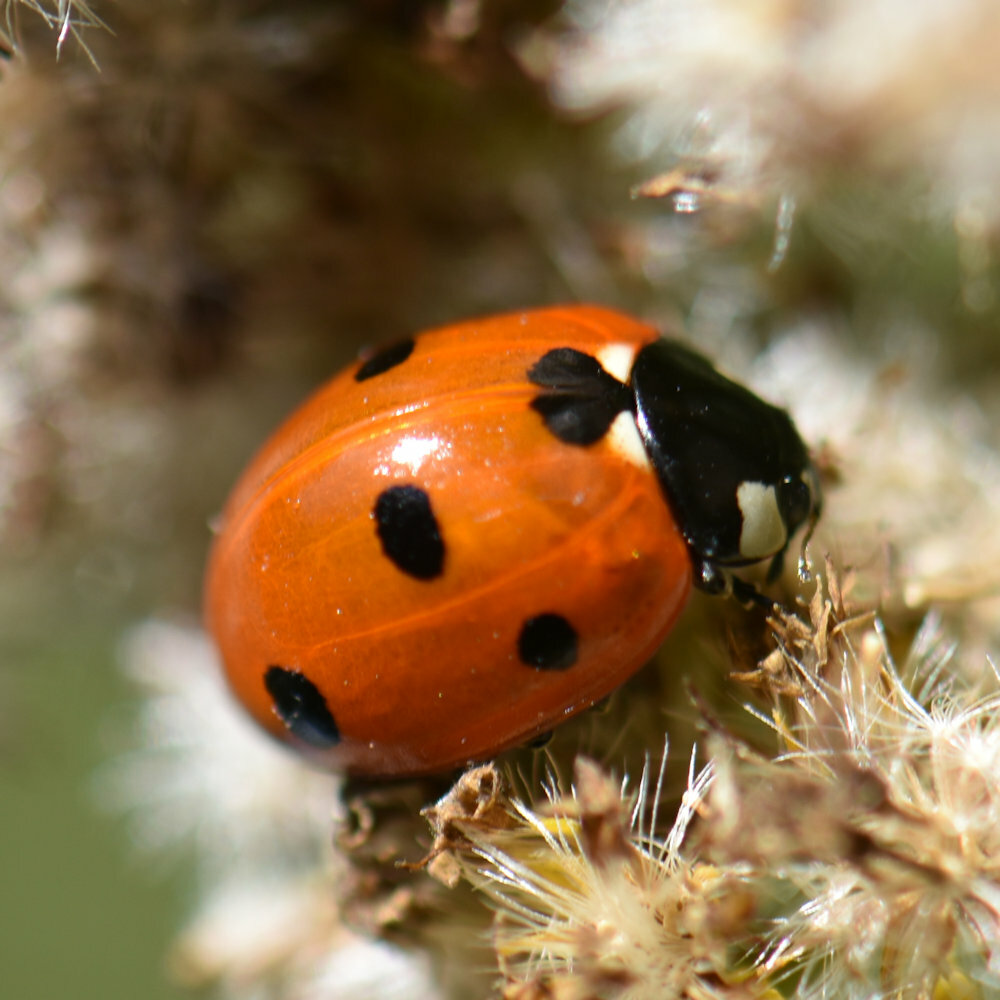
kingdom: Animalia
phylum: Arthropoda
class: Insecta
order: Coleoptera
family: Coccinellidae
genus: Coccinella
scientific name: Coccinella septempunctata
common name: Sevenspotted lady beetle
